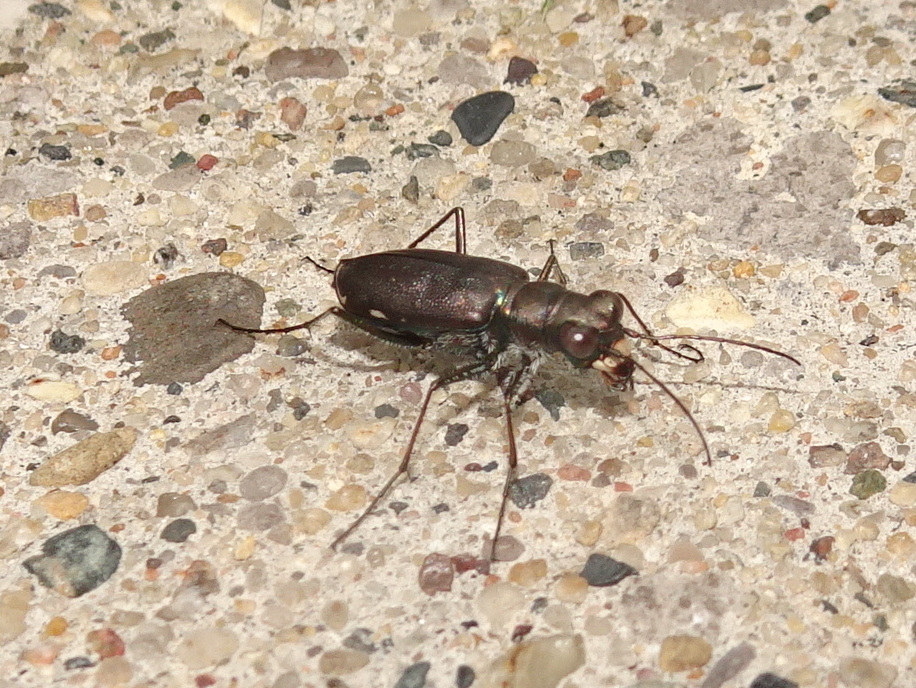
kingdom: Animalia
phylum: Arthropoda
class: Insecta
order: Coleoptera
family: Carabidae
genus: Cicindela
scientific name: Cicindela punctulata
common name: Punctured tiger beetle
